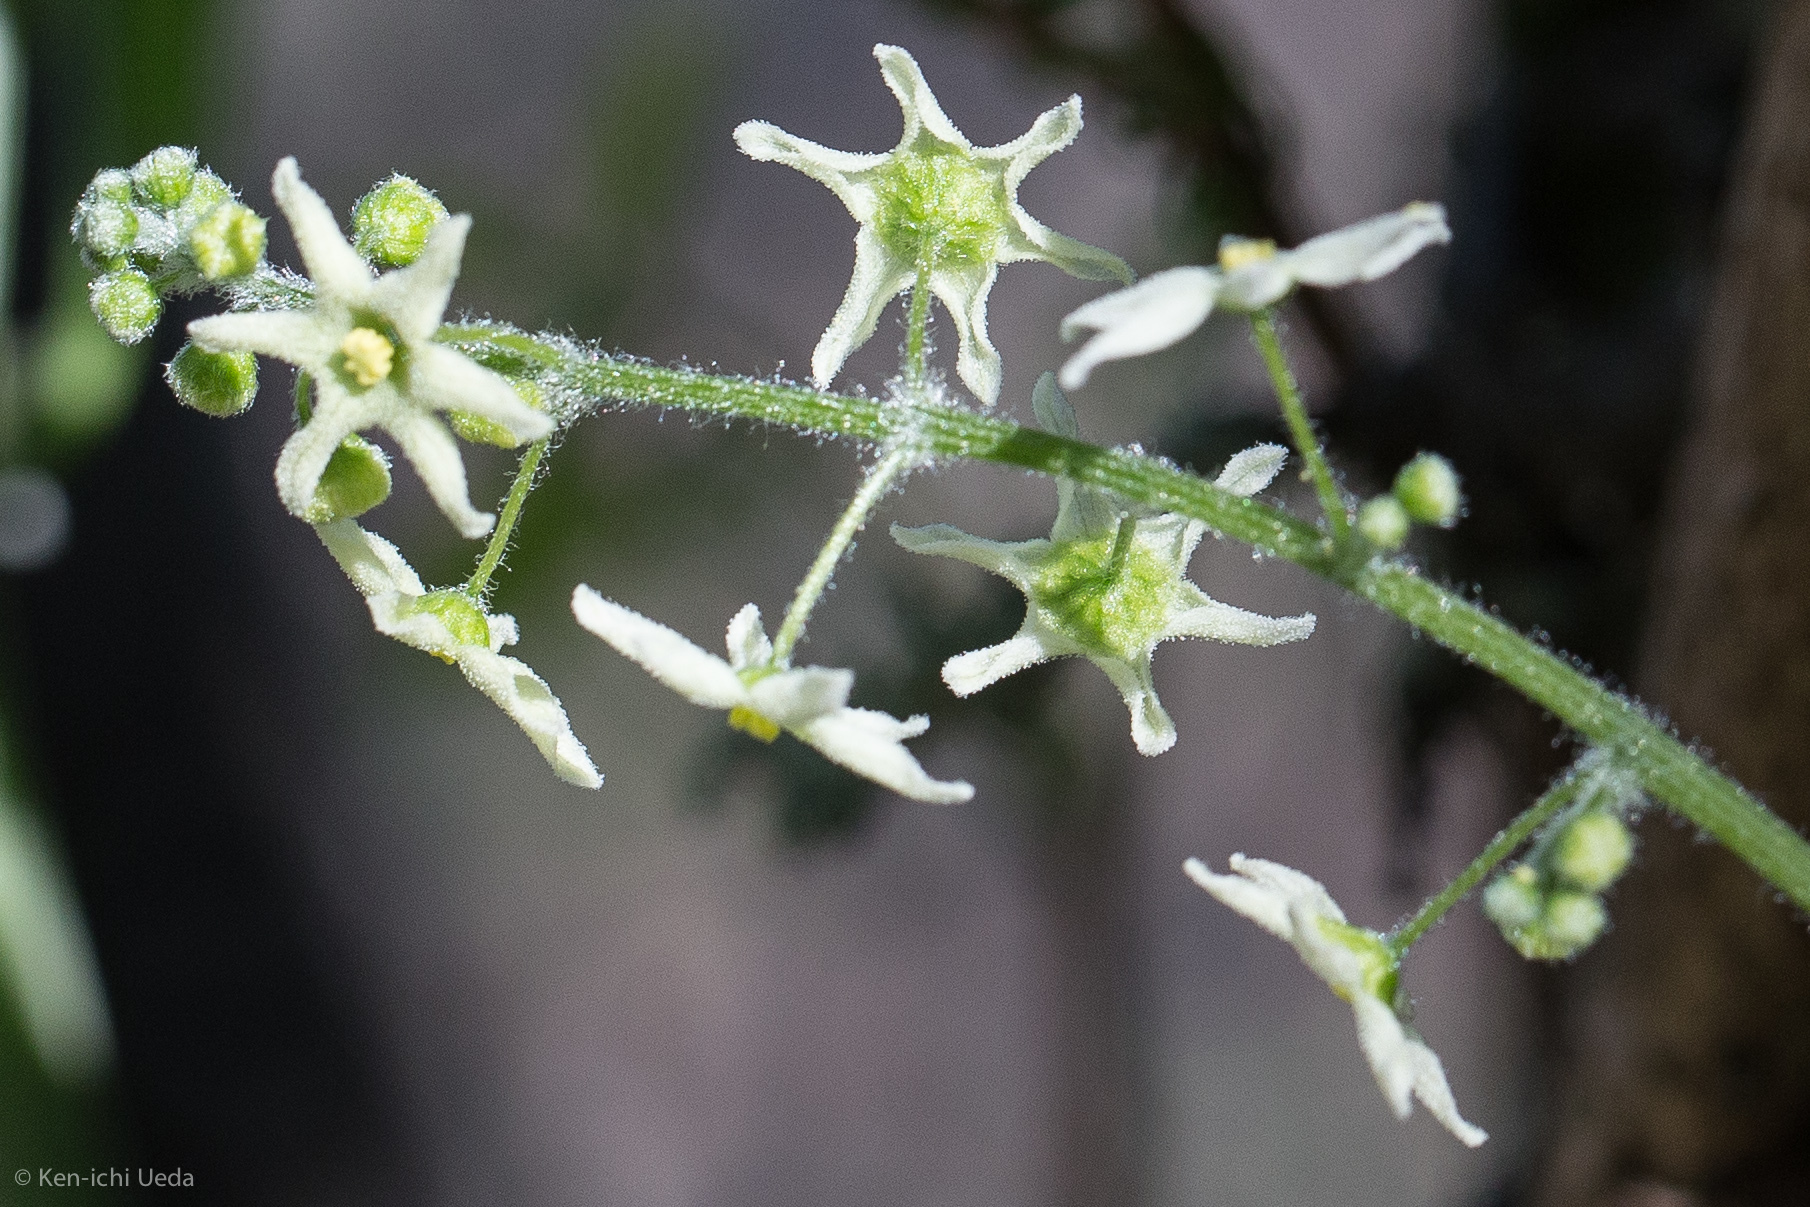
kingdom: Plantae
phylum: Tracheophyta
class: Magnoliopsida
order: Cucurbitales
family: Cucurbitaceae
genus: Marah
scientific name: Marah fabacea
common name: California manroot
